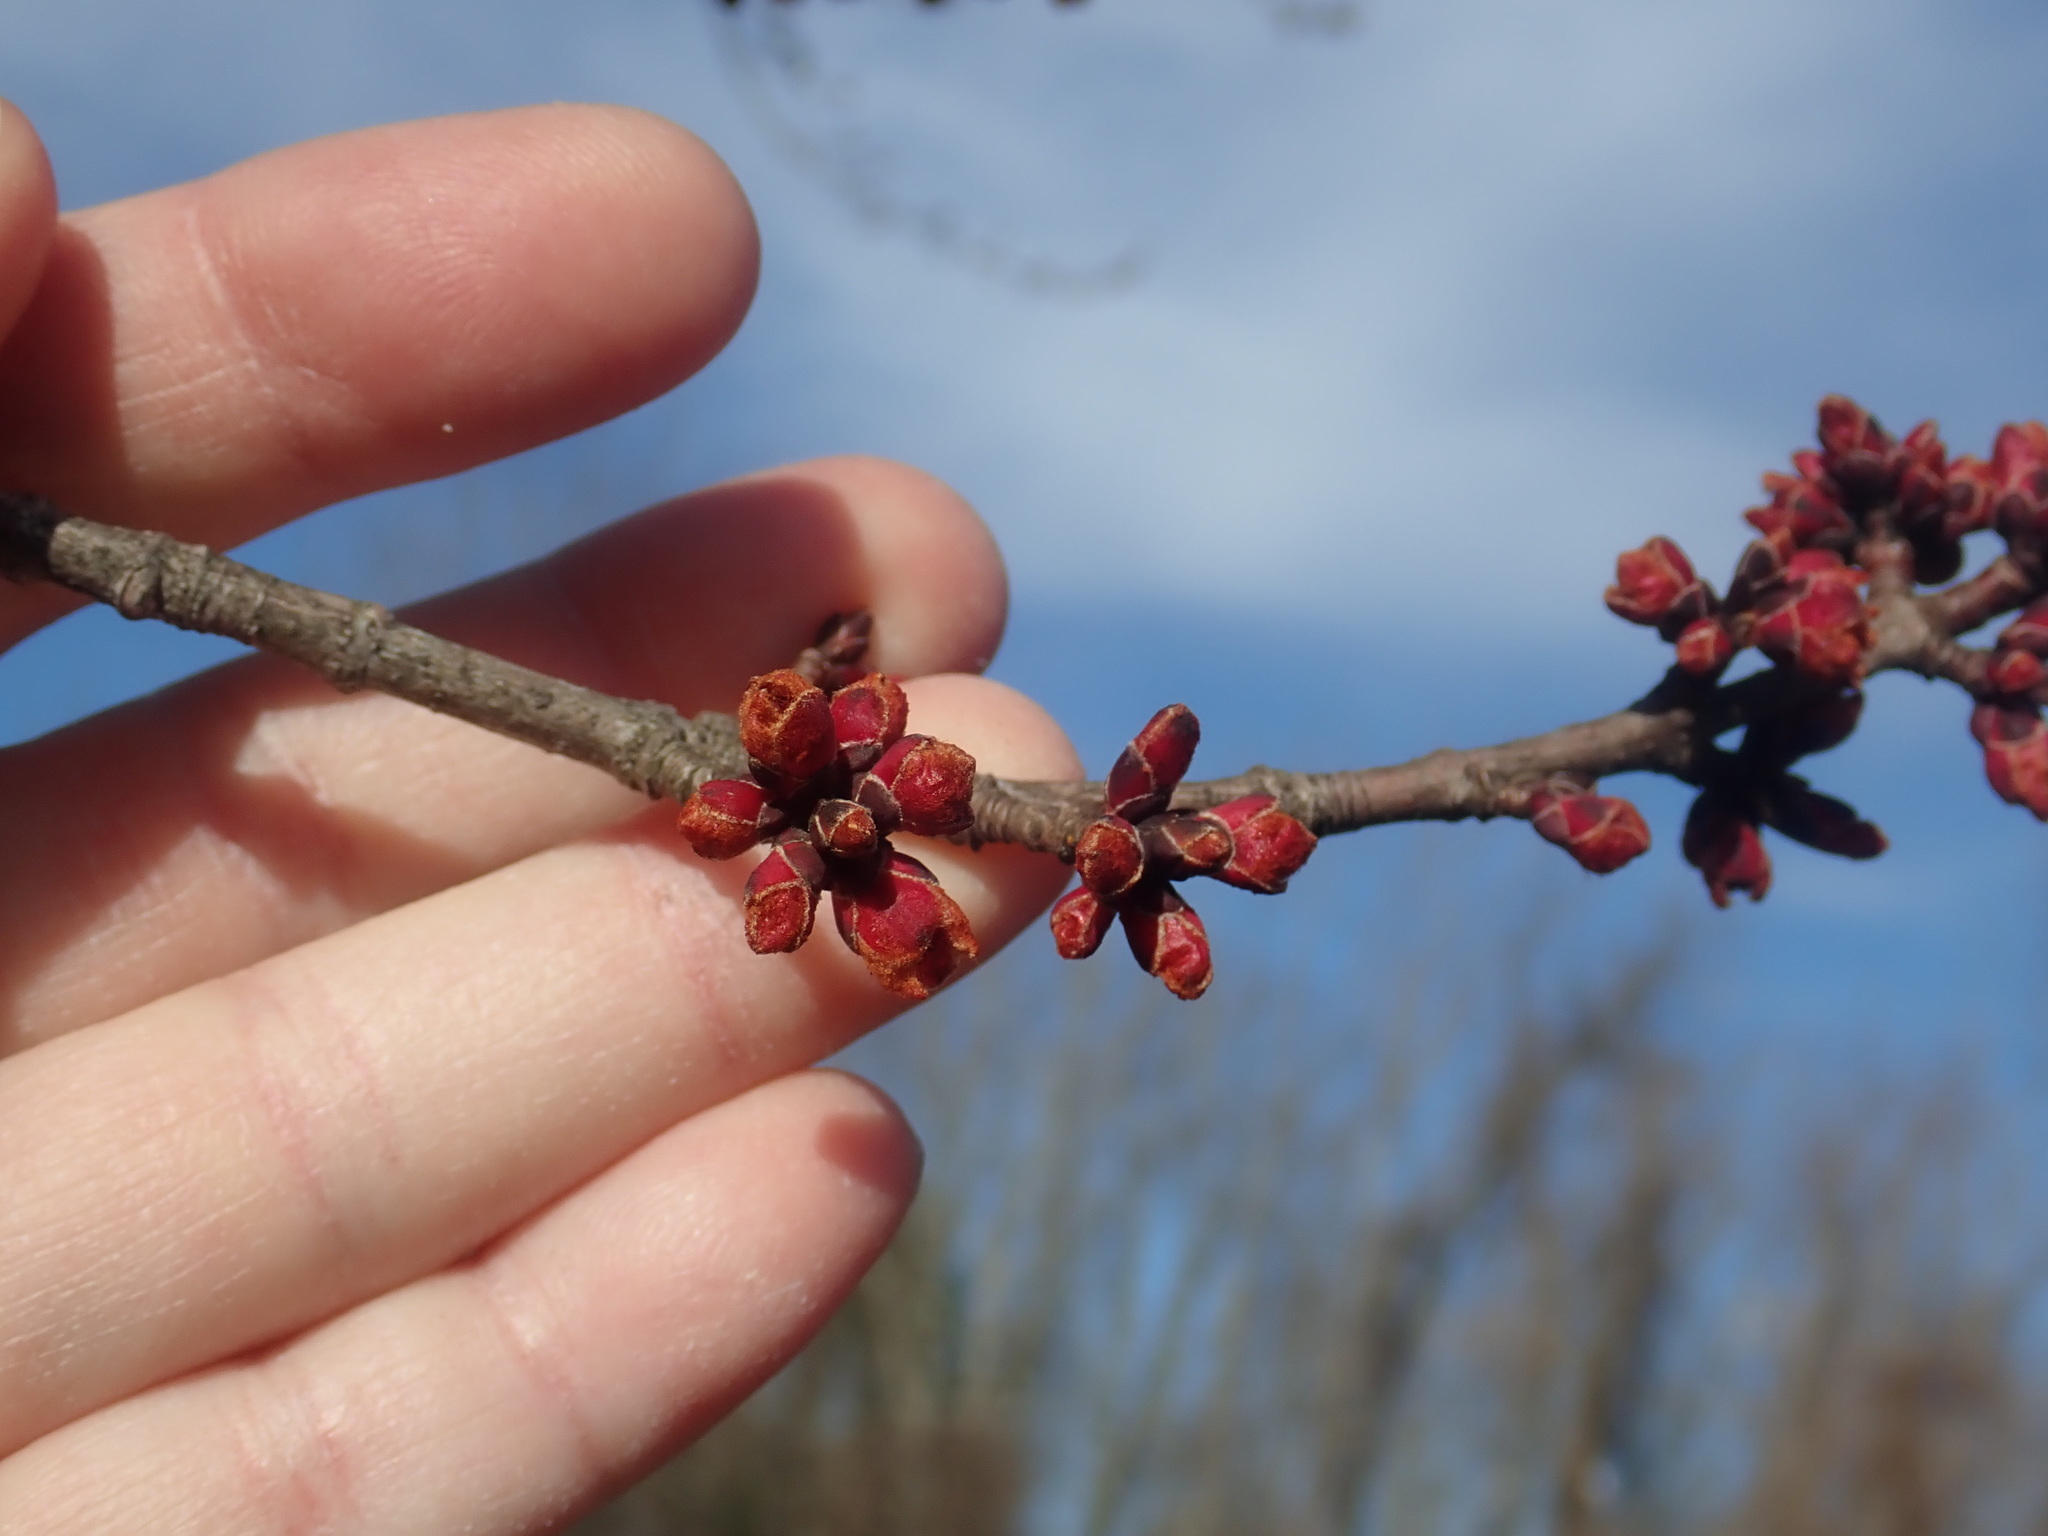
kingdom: Plantae
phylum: Tracheophyta
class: Magnoliopsida
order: Sapindales
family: Sapindaceae
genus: Acer
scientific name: Acer rubrum
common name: Red maple
